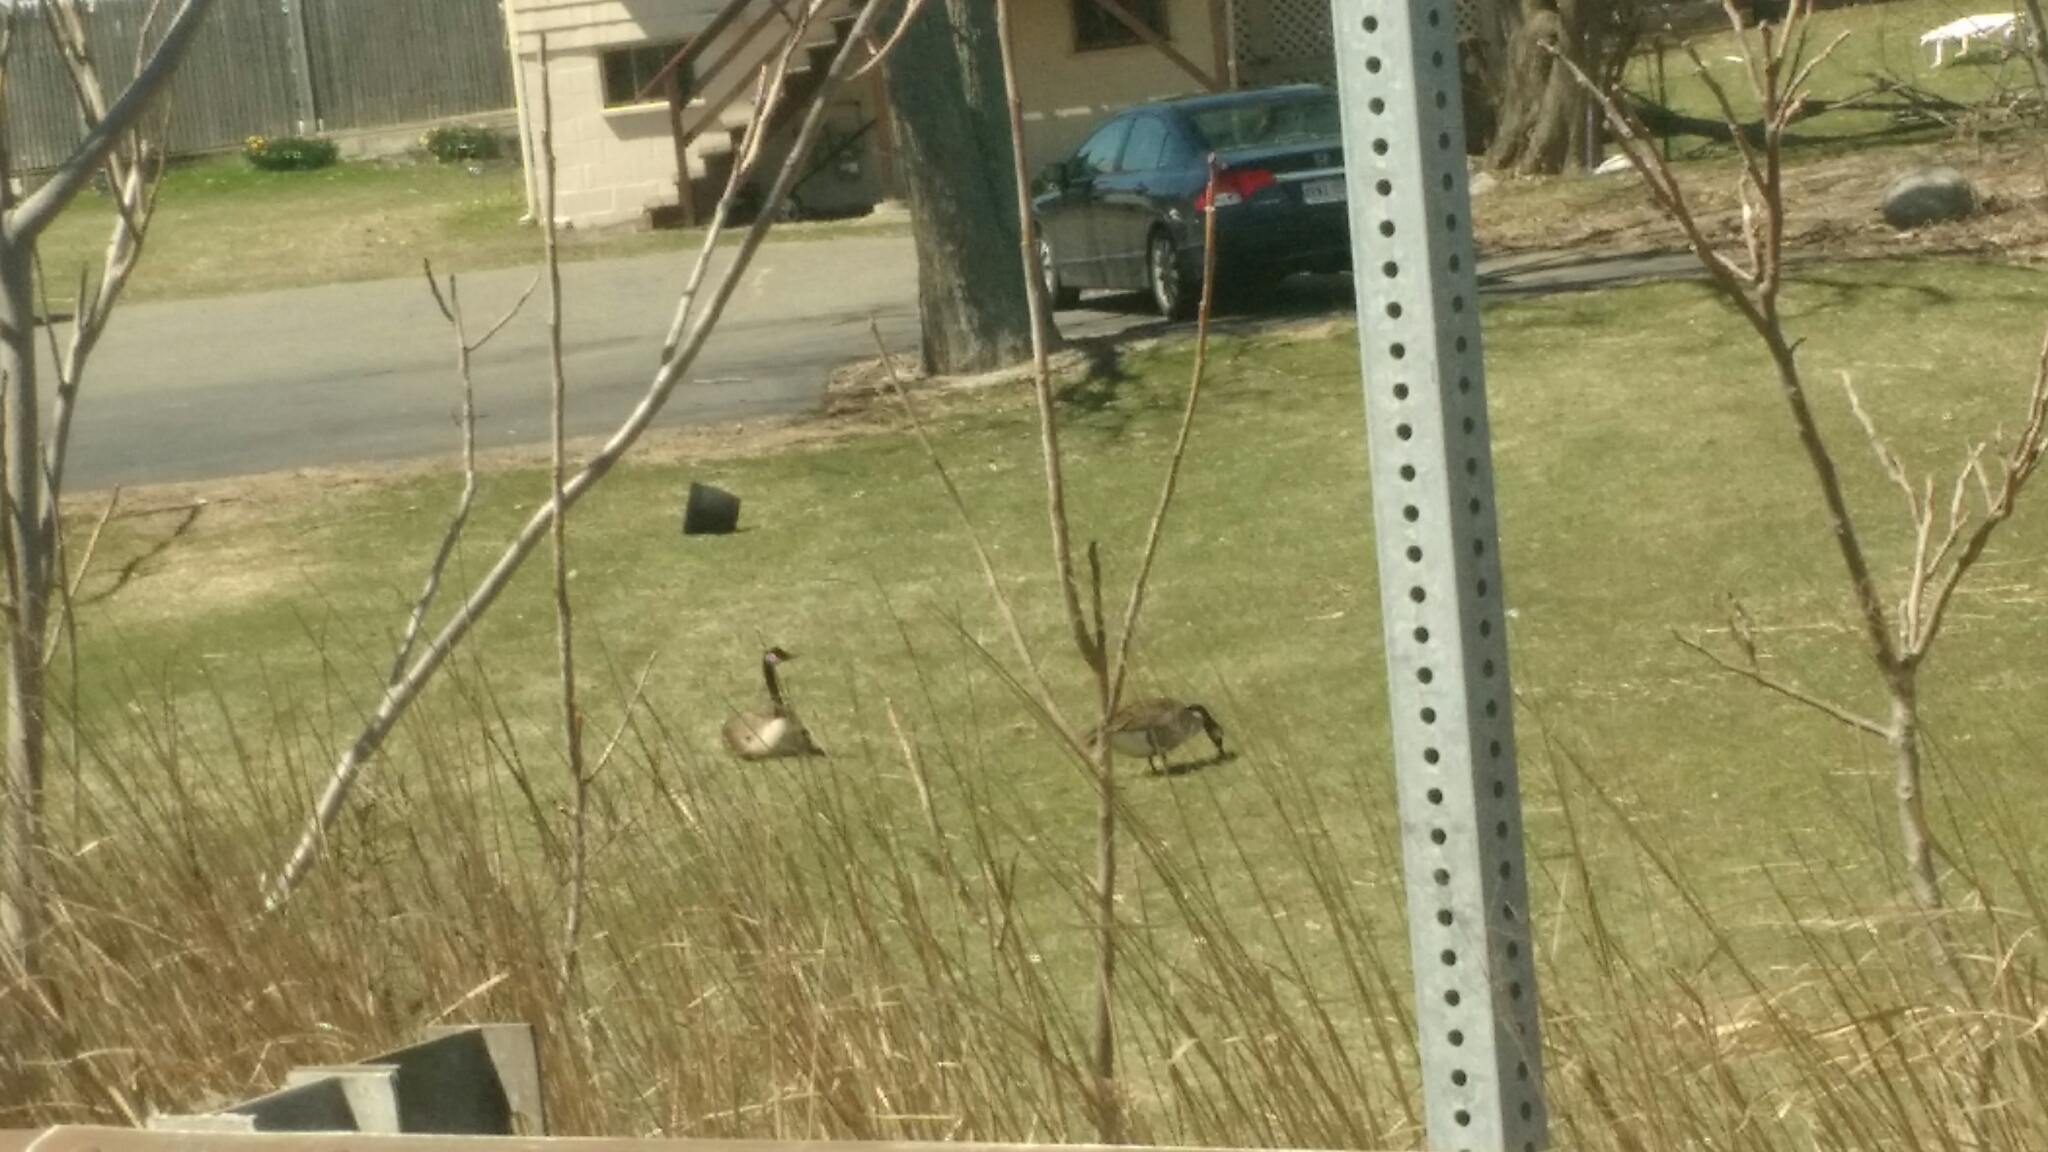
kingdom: Animalia
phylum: Chordata
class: Aves
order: Anseriformes
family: Anatidae
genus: Branta
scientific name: Branta canadensis
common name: Canada goose
